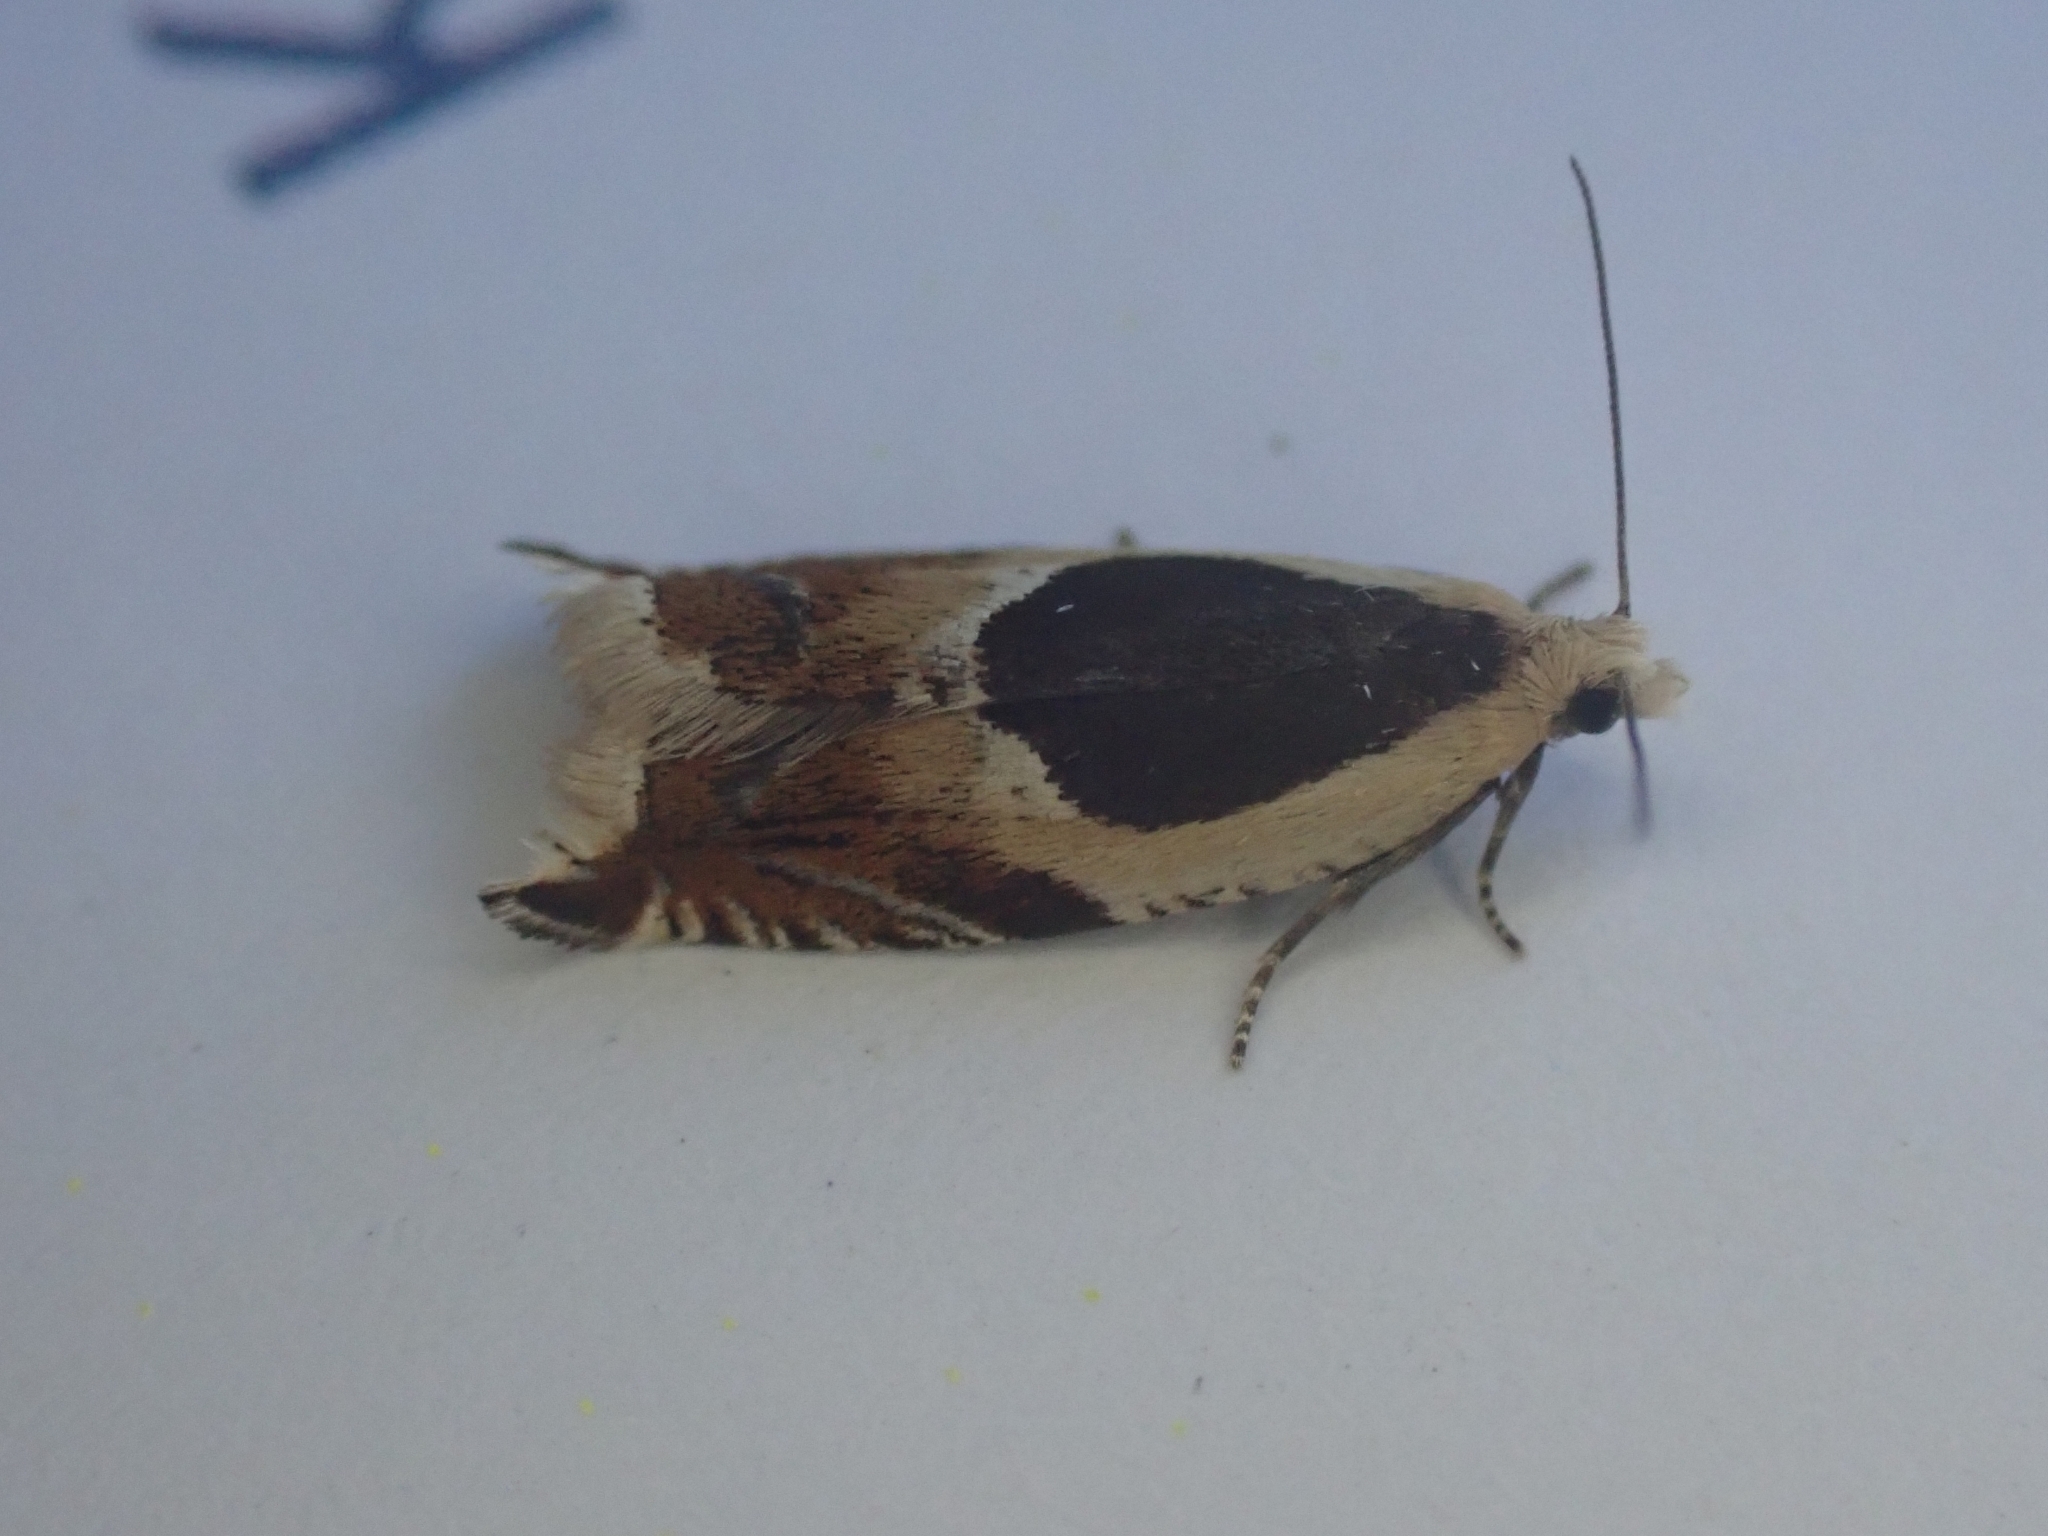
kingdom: Animalia
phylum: Arthropoda
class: Insecta
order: Lepidoptera
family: Tortricidae
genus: Ancylis
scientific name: Ancylis badiana
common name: Common roller
